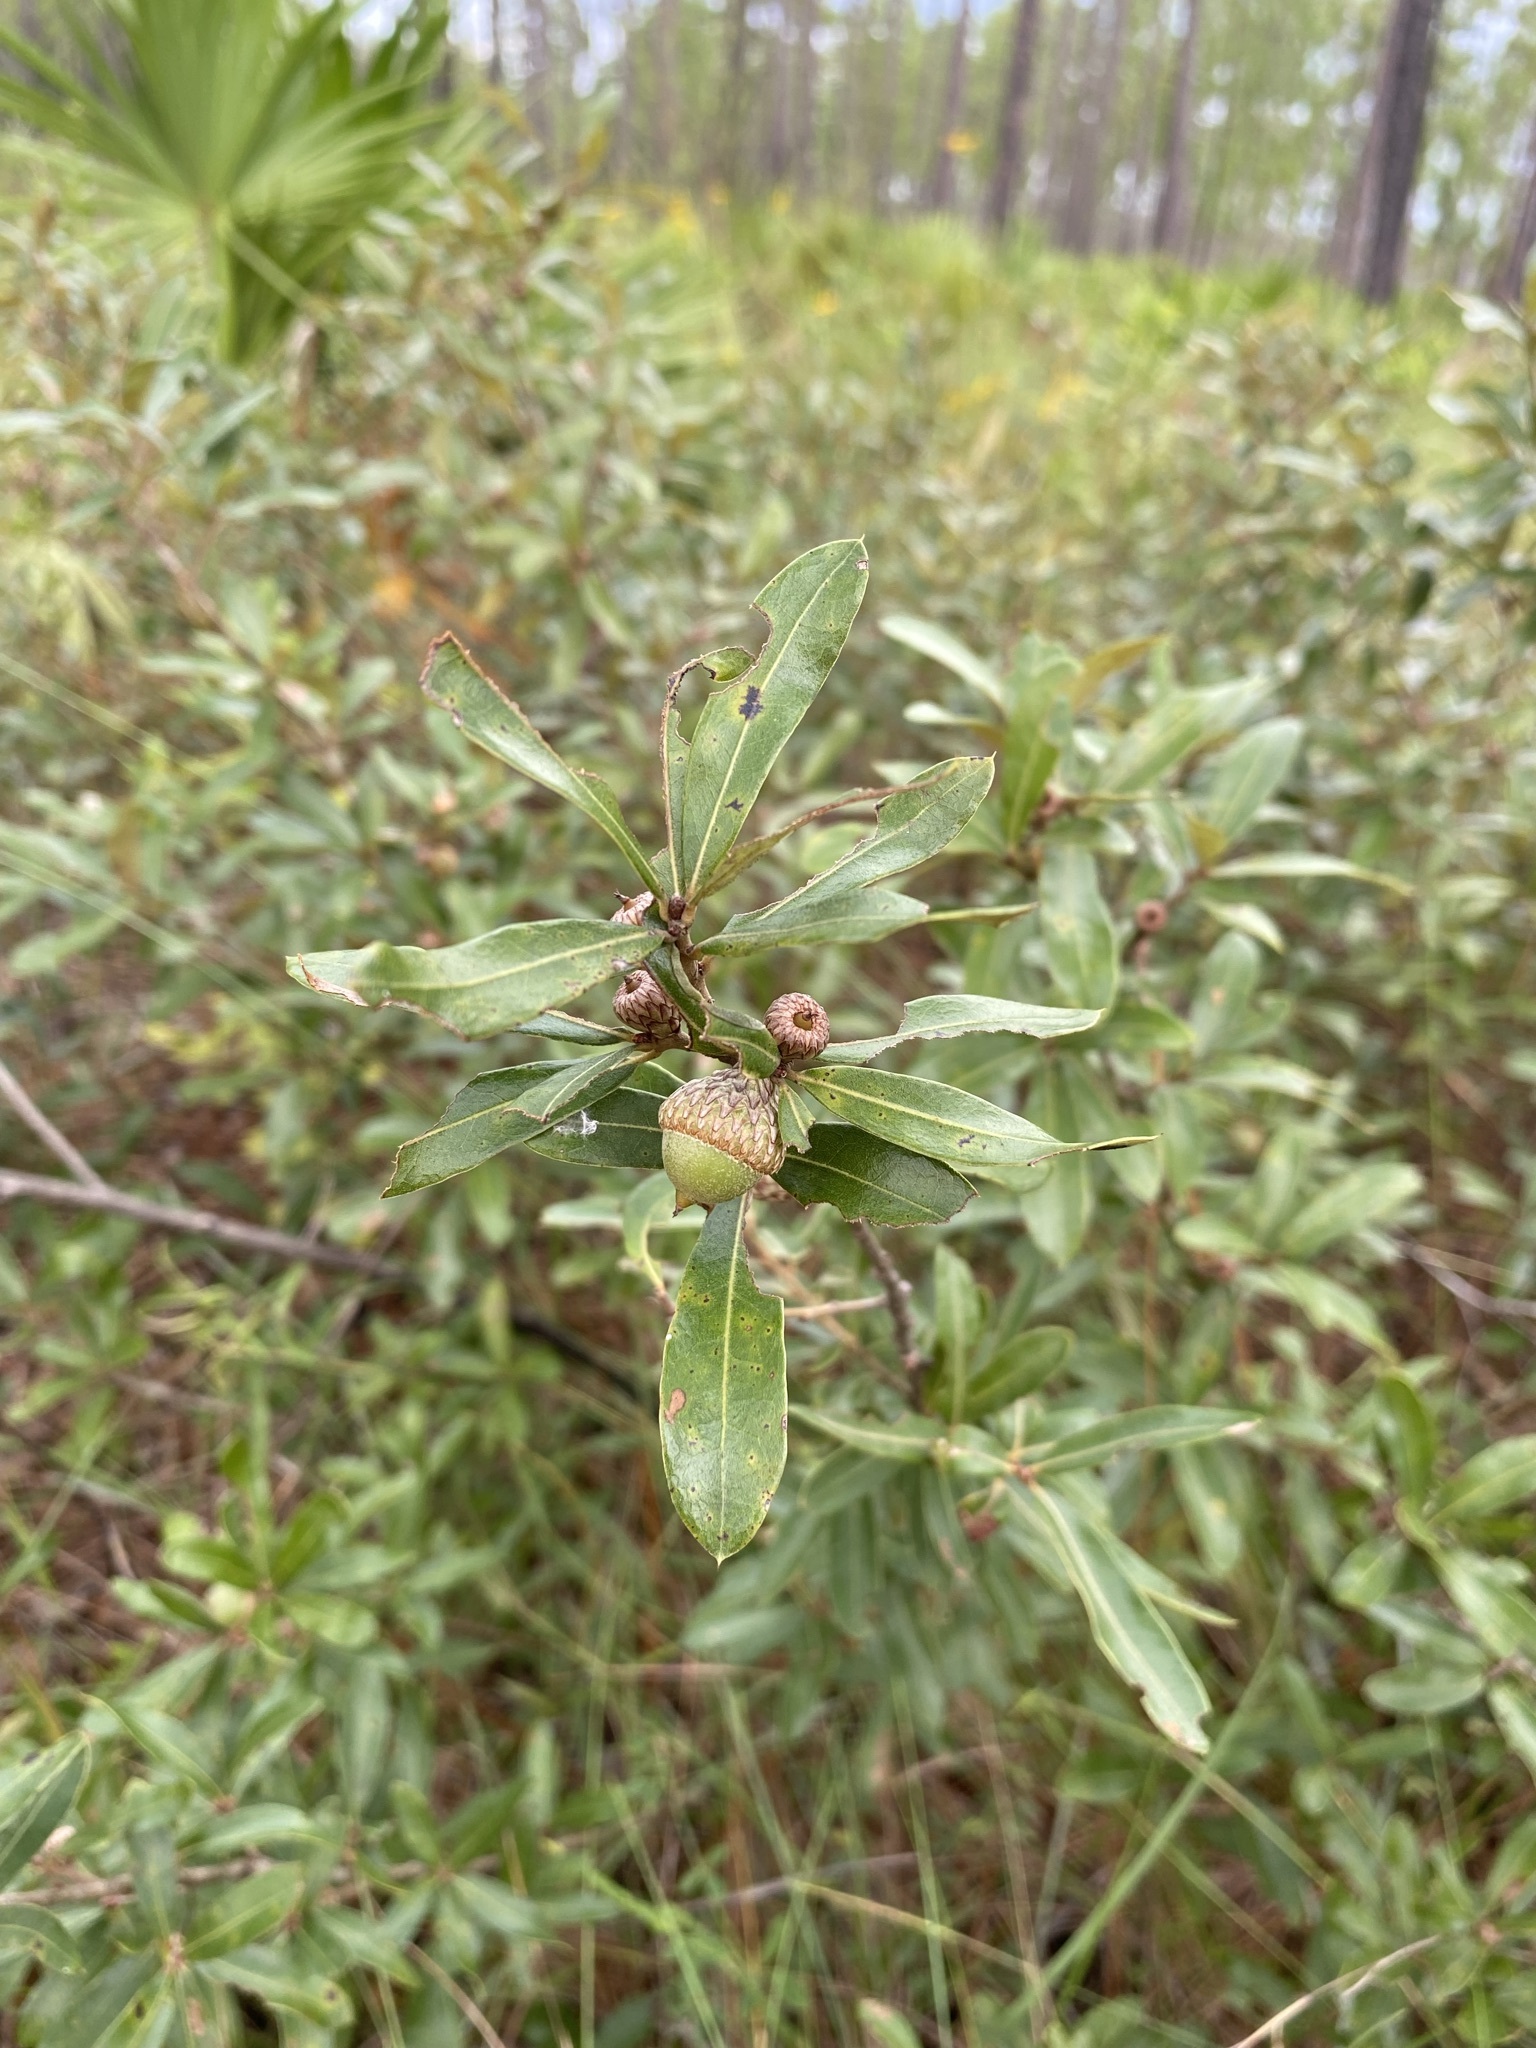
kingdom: Plantae
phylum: Tracheophyta
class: Magnoliopsida
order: Fagales
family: Fagaceae
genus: Quercus
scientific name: Quercus pumila
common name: Runner oak
